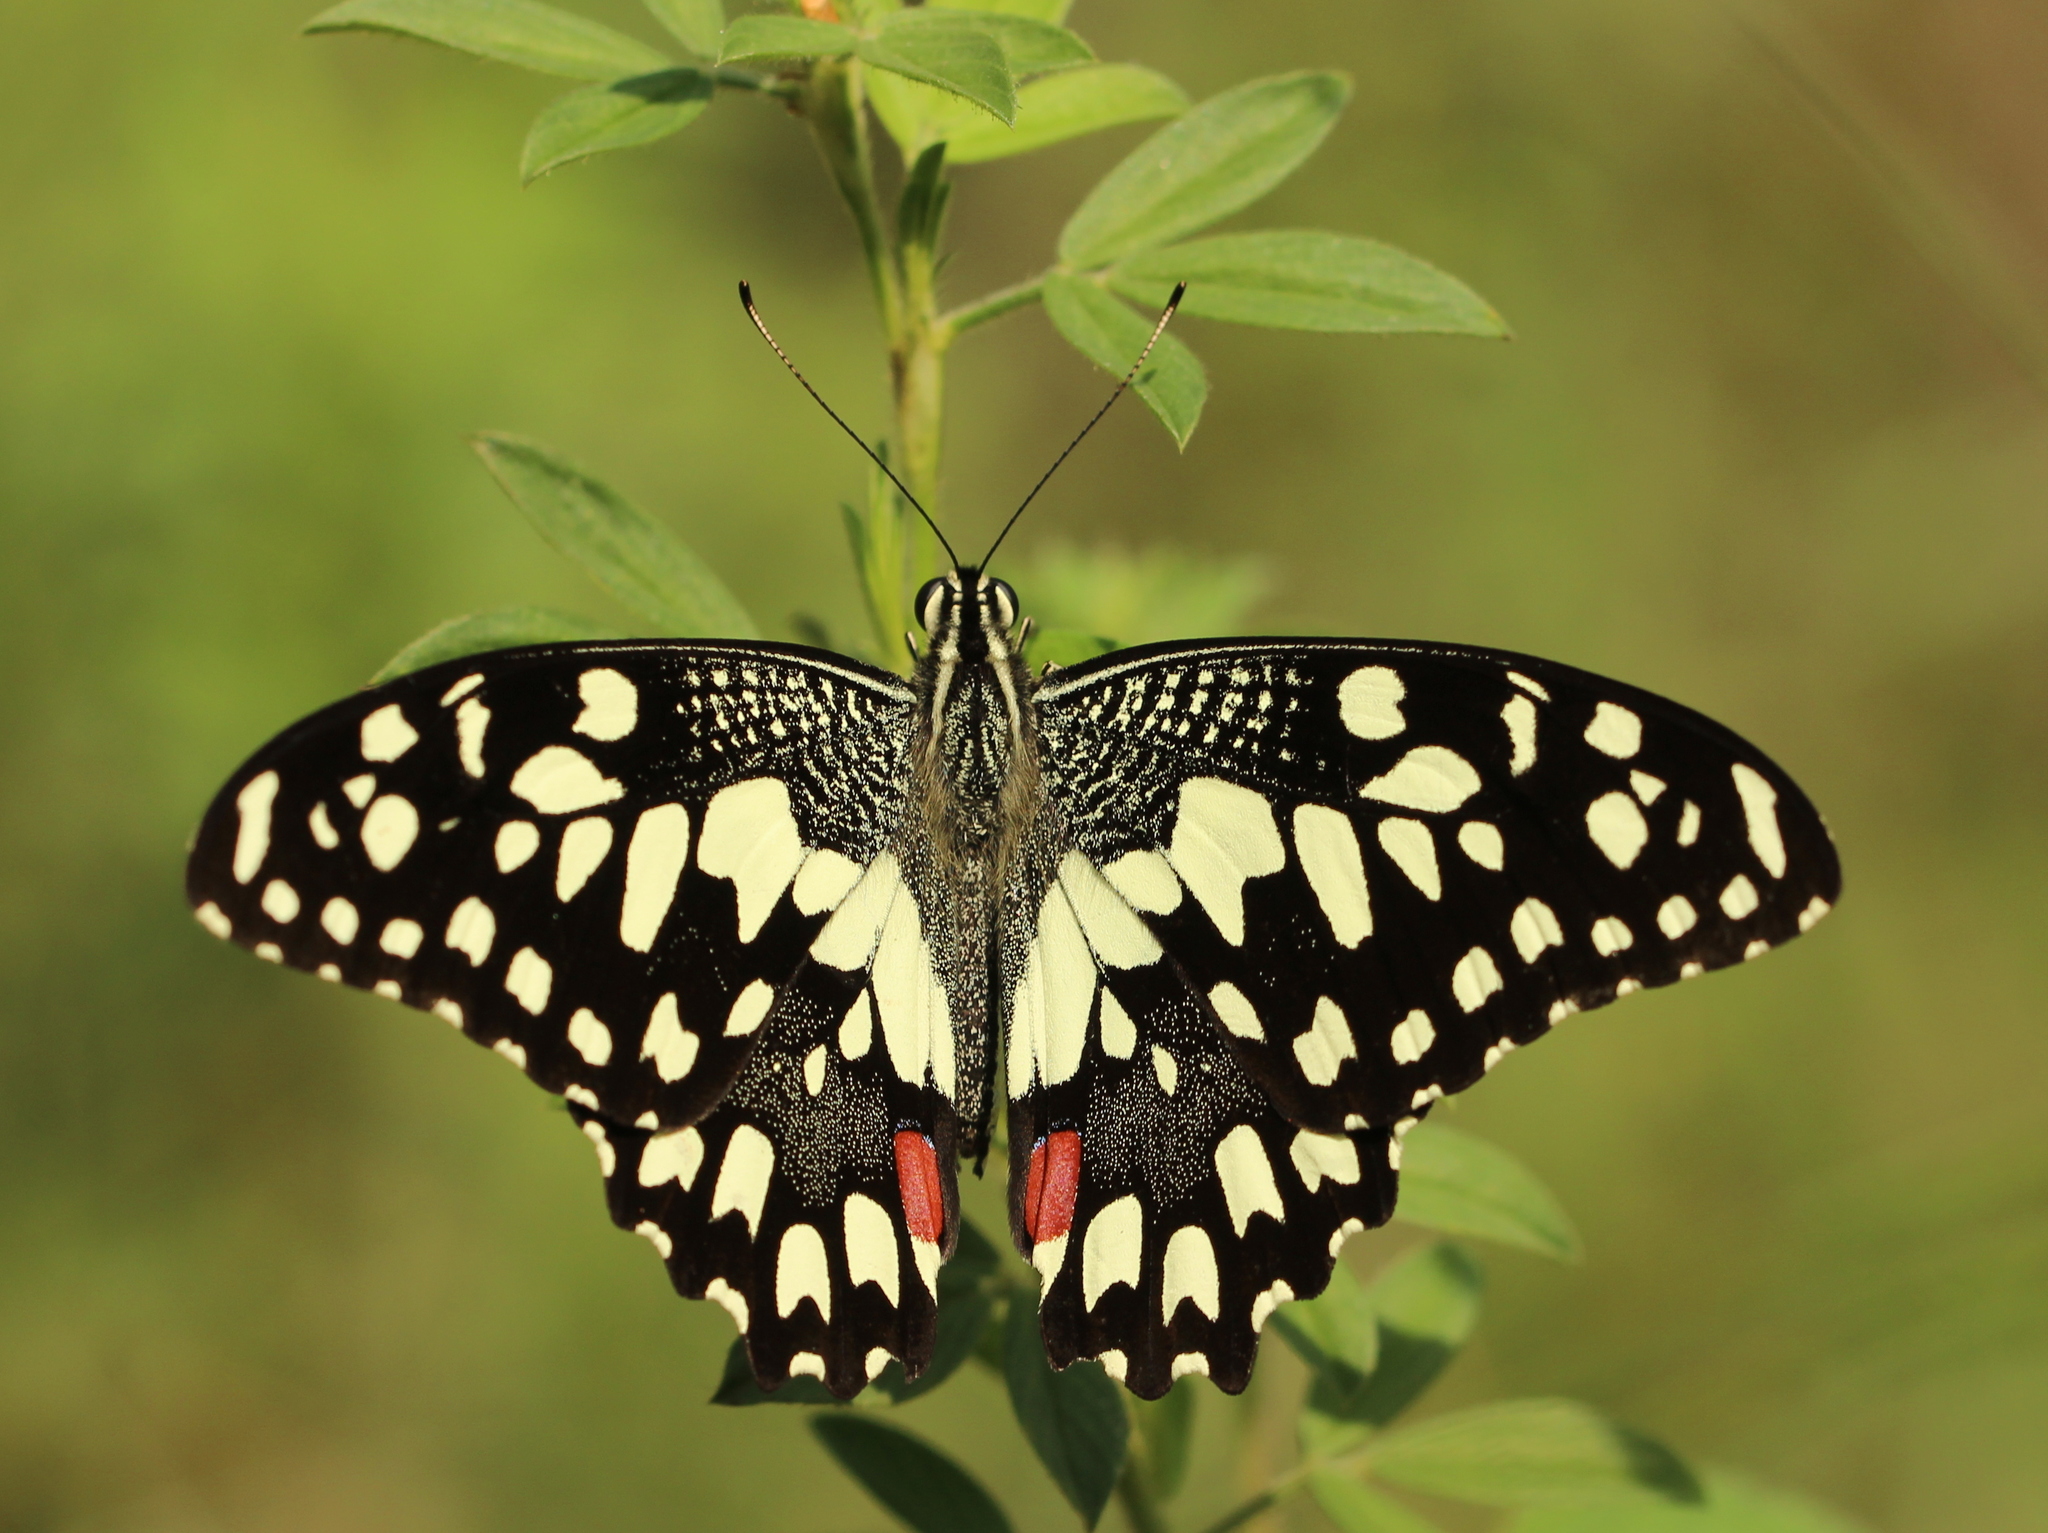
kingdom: Animalia
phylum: Arthropoda
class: Insecta
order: Lepidoptera
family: Papilionidae
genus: Papilio
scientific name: Papilio demoleus
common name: Lime butterfly
